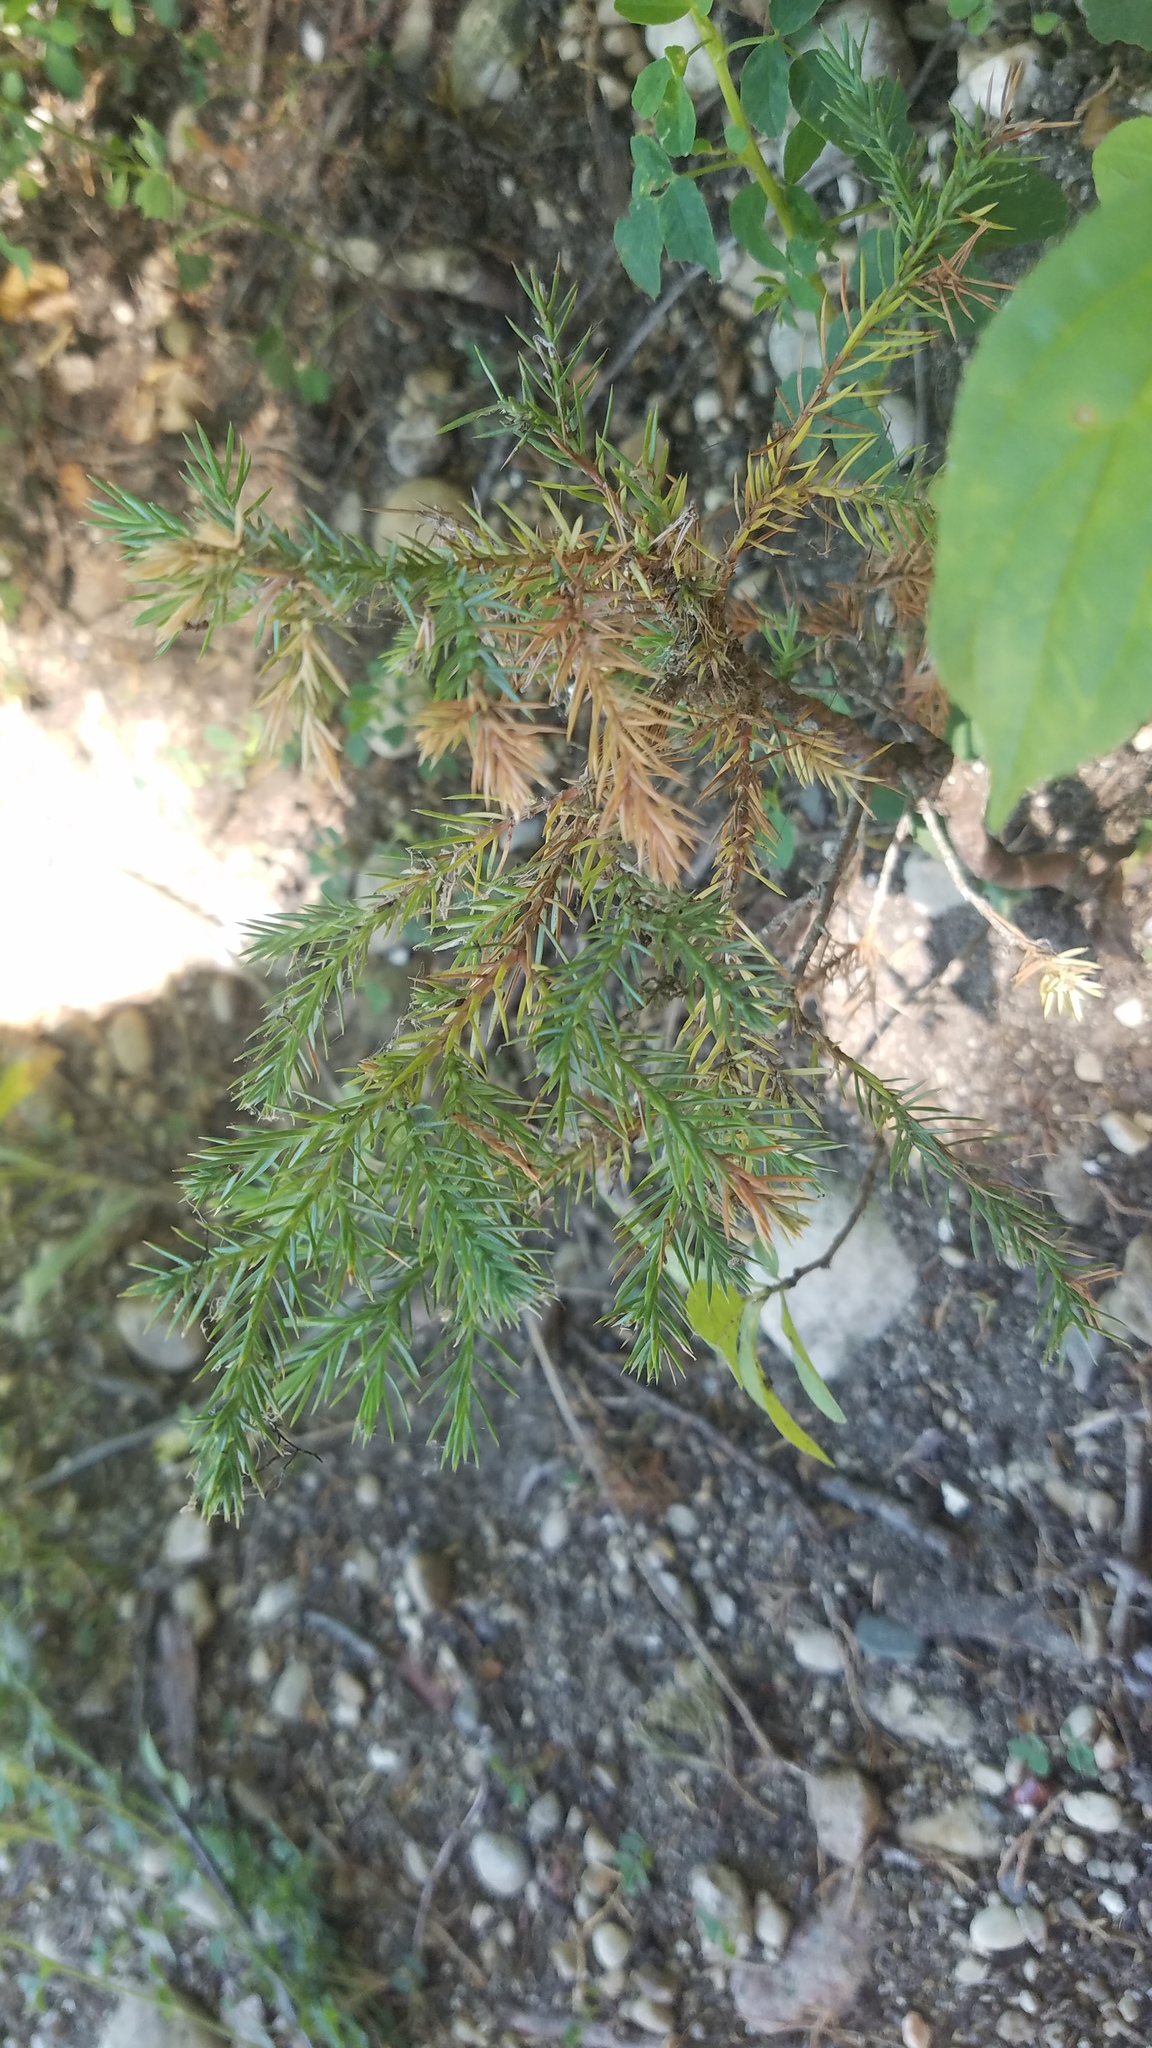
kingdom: Plantae
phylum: Tracheophyta
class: Pinopsida
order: Pinales
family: Cupressaceae
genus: Juniperus
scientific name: Juniperus virginiana
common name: Red juniper
